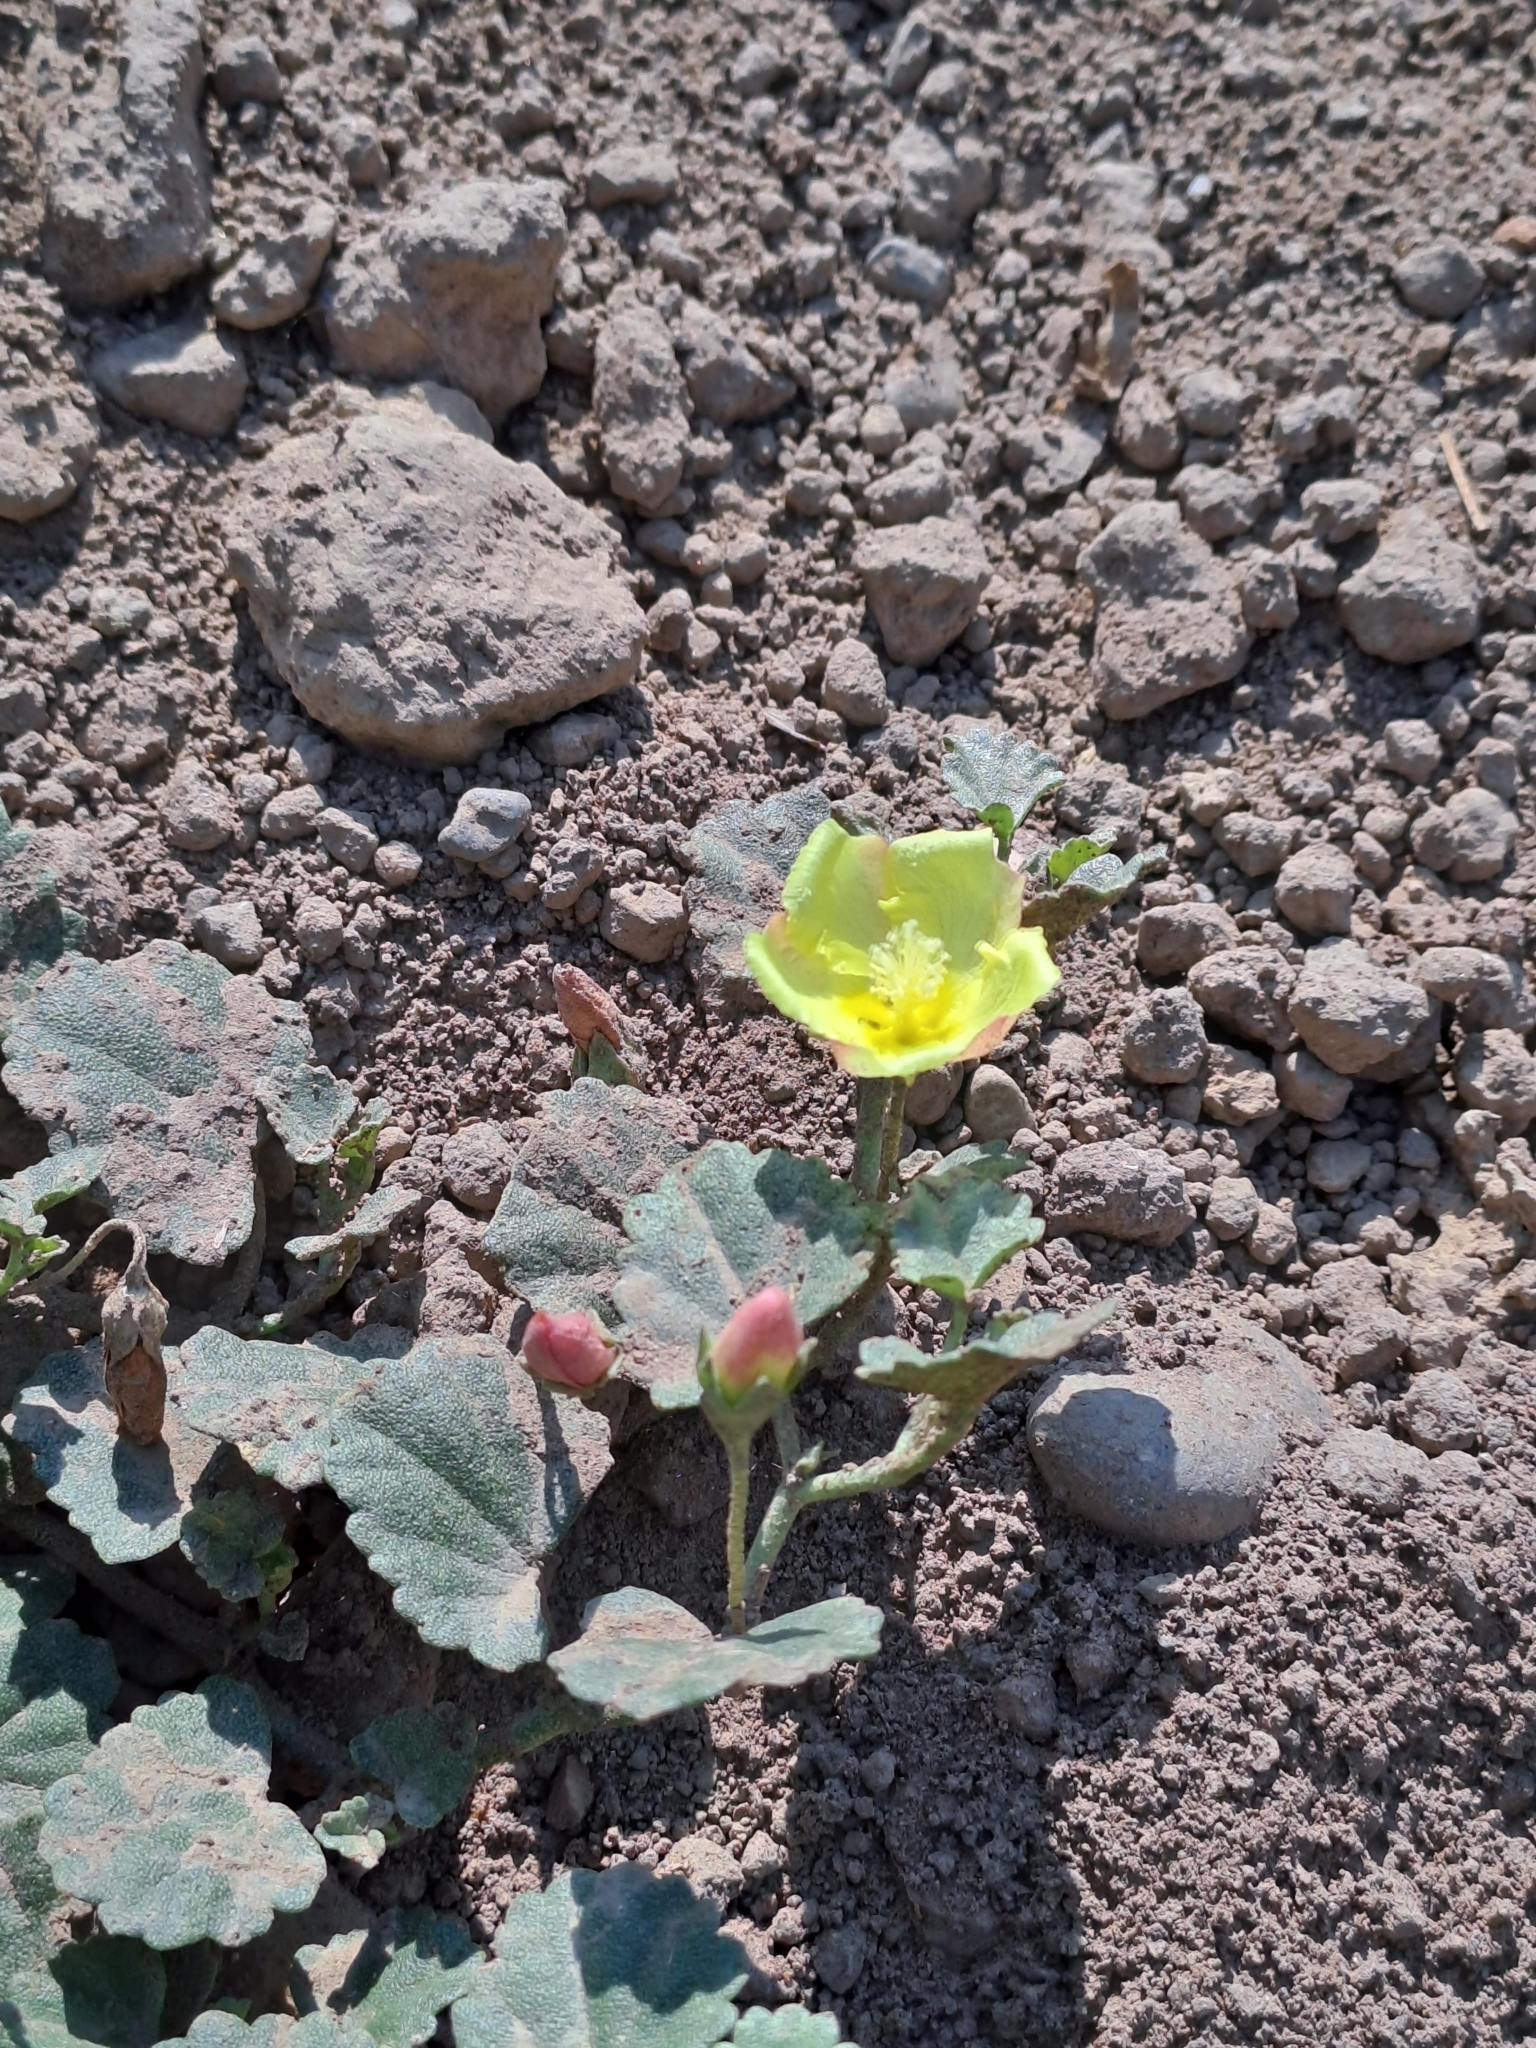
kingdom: Plantae
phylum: Tracheophyta
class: Magnoliopsida
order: Malvales
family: Malvaceae
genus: Malvella
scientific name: Malvella leprosa
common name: Alkali-mallow
